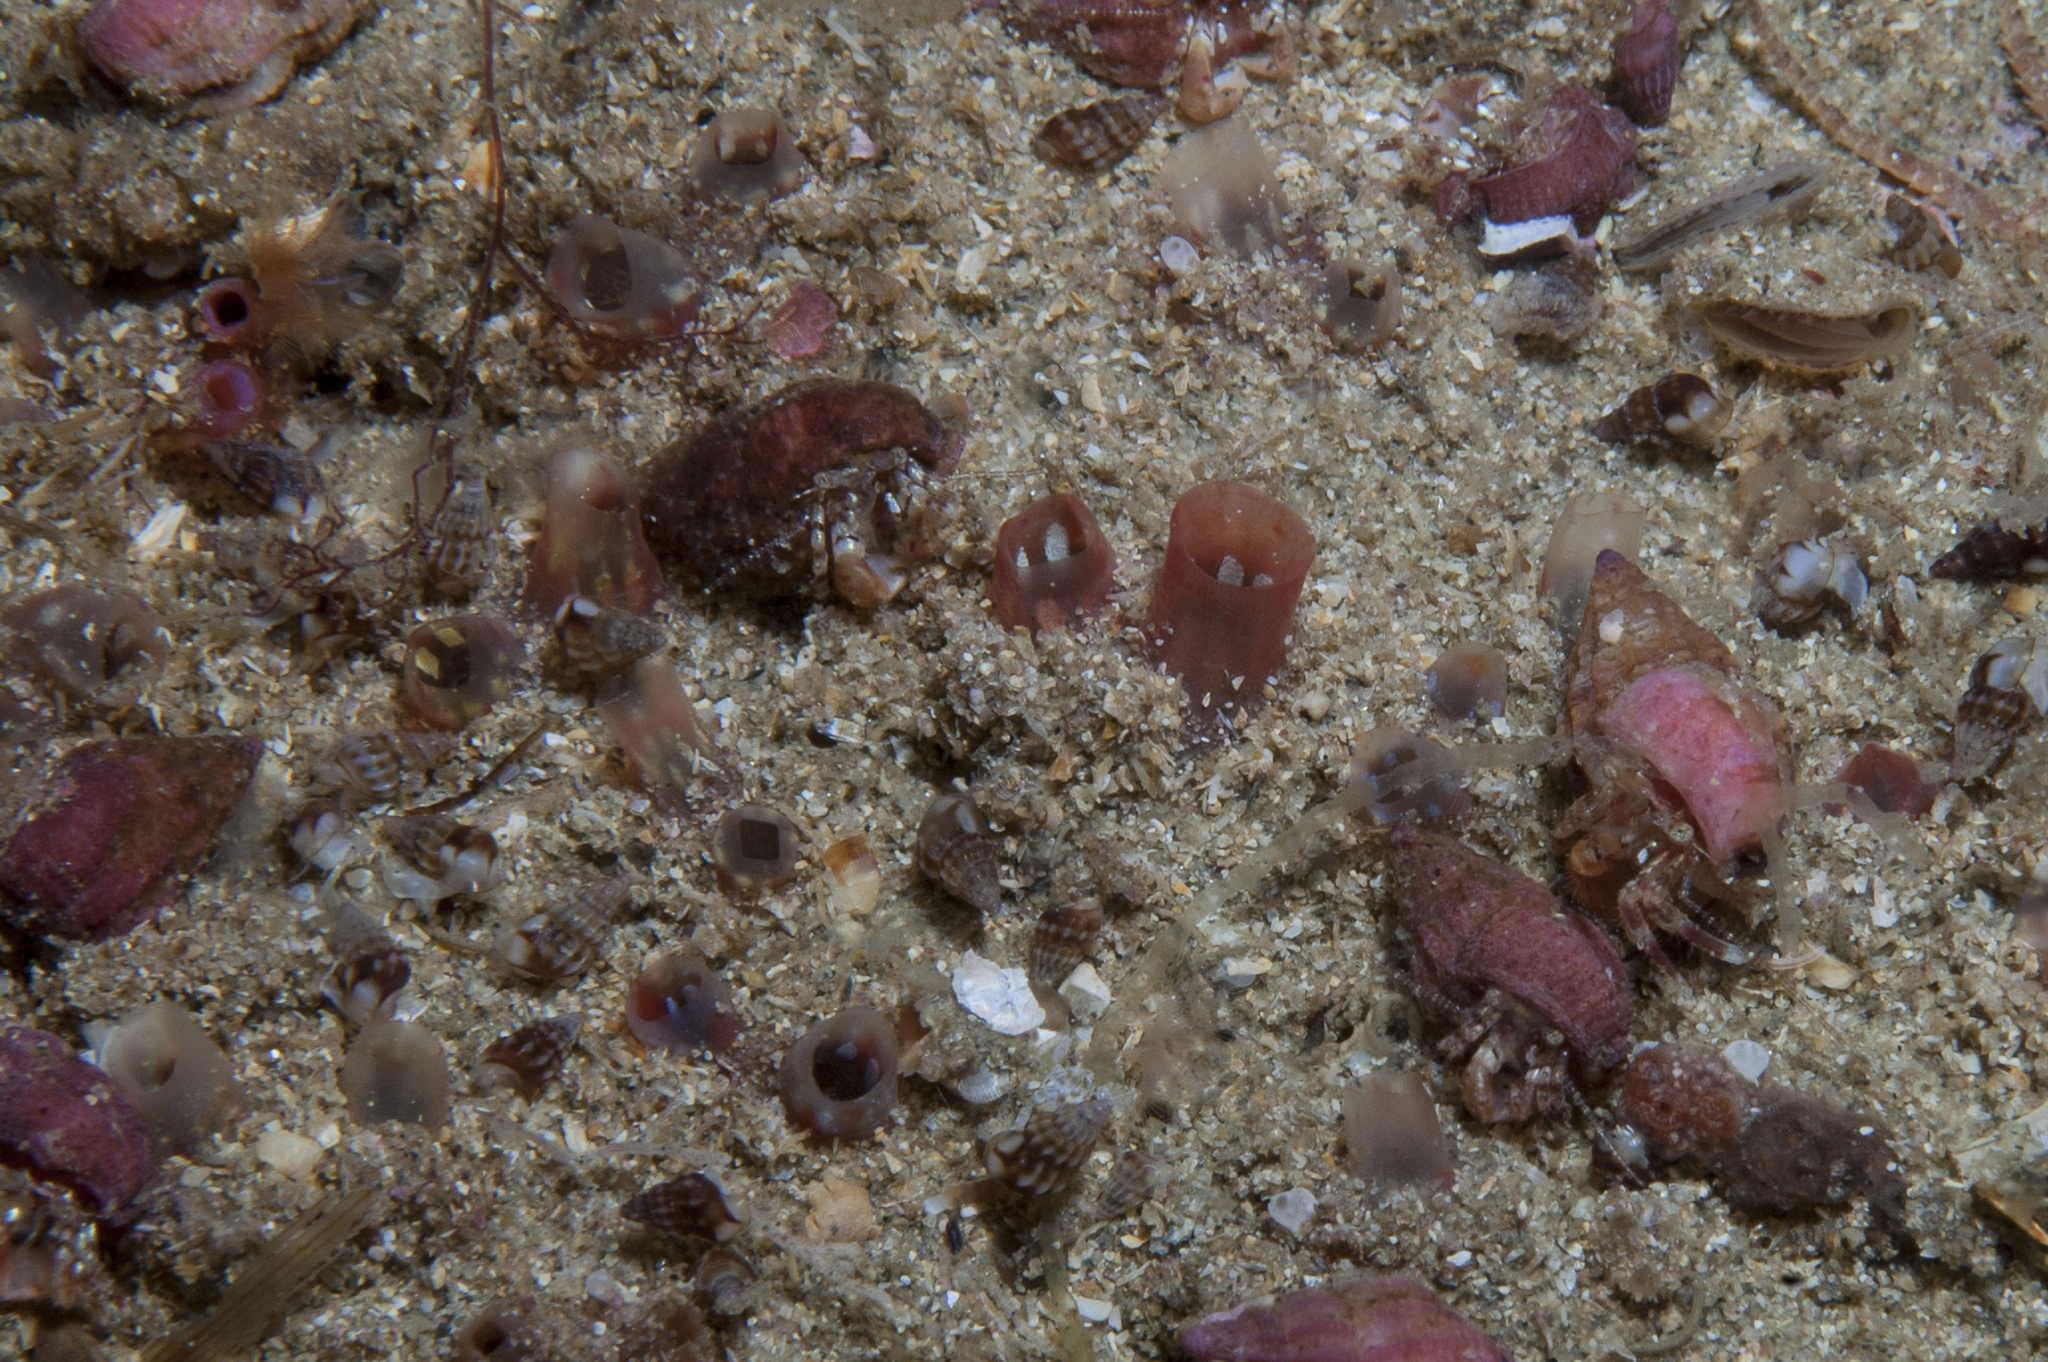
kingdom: Animalia
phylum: Chordata
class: Ascidiacea
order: Stolidobranchia
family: Styelidae
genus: Polycarpa
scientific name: Polycarpa fibrosa
